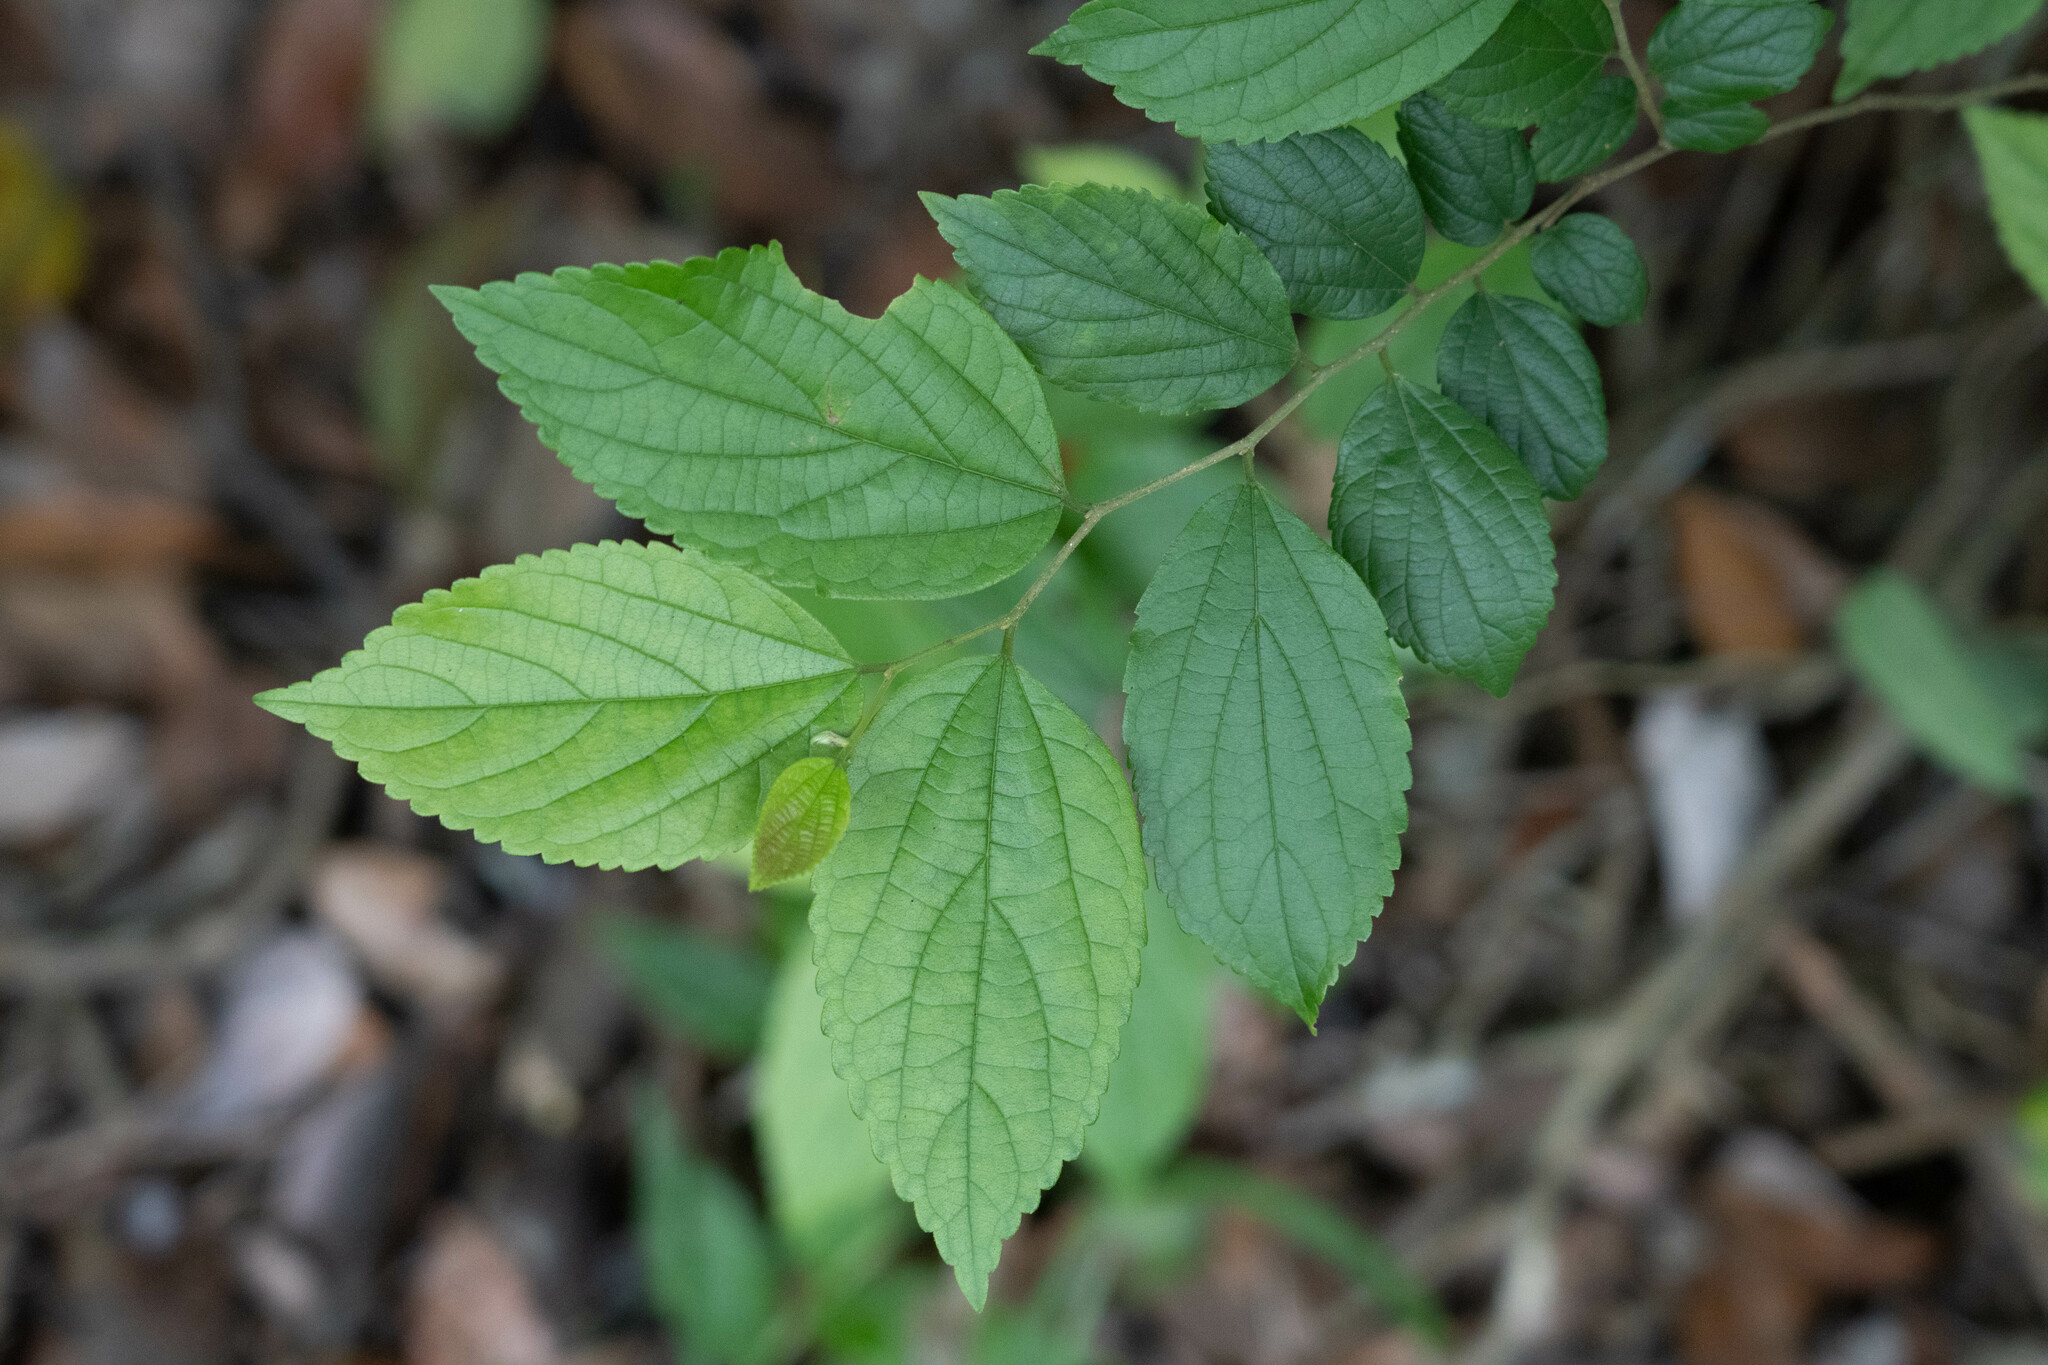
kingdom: Plantae
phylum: Tracheophyta
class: Magnoliopsida
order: Rosales
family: Cannabaceae
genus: Celtis
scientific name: Celtis sinensis
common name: Chinese hackberry
